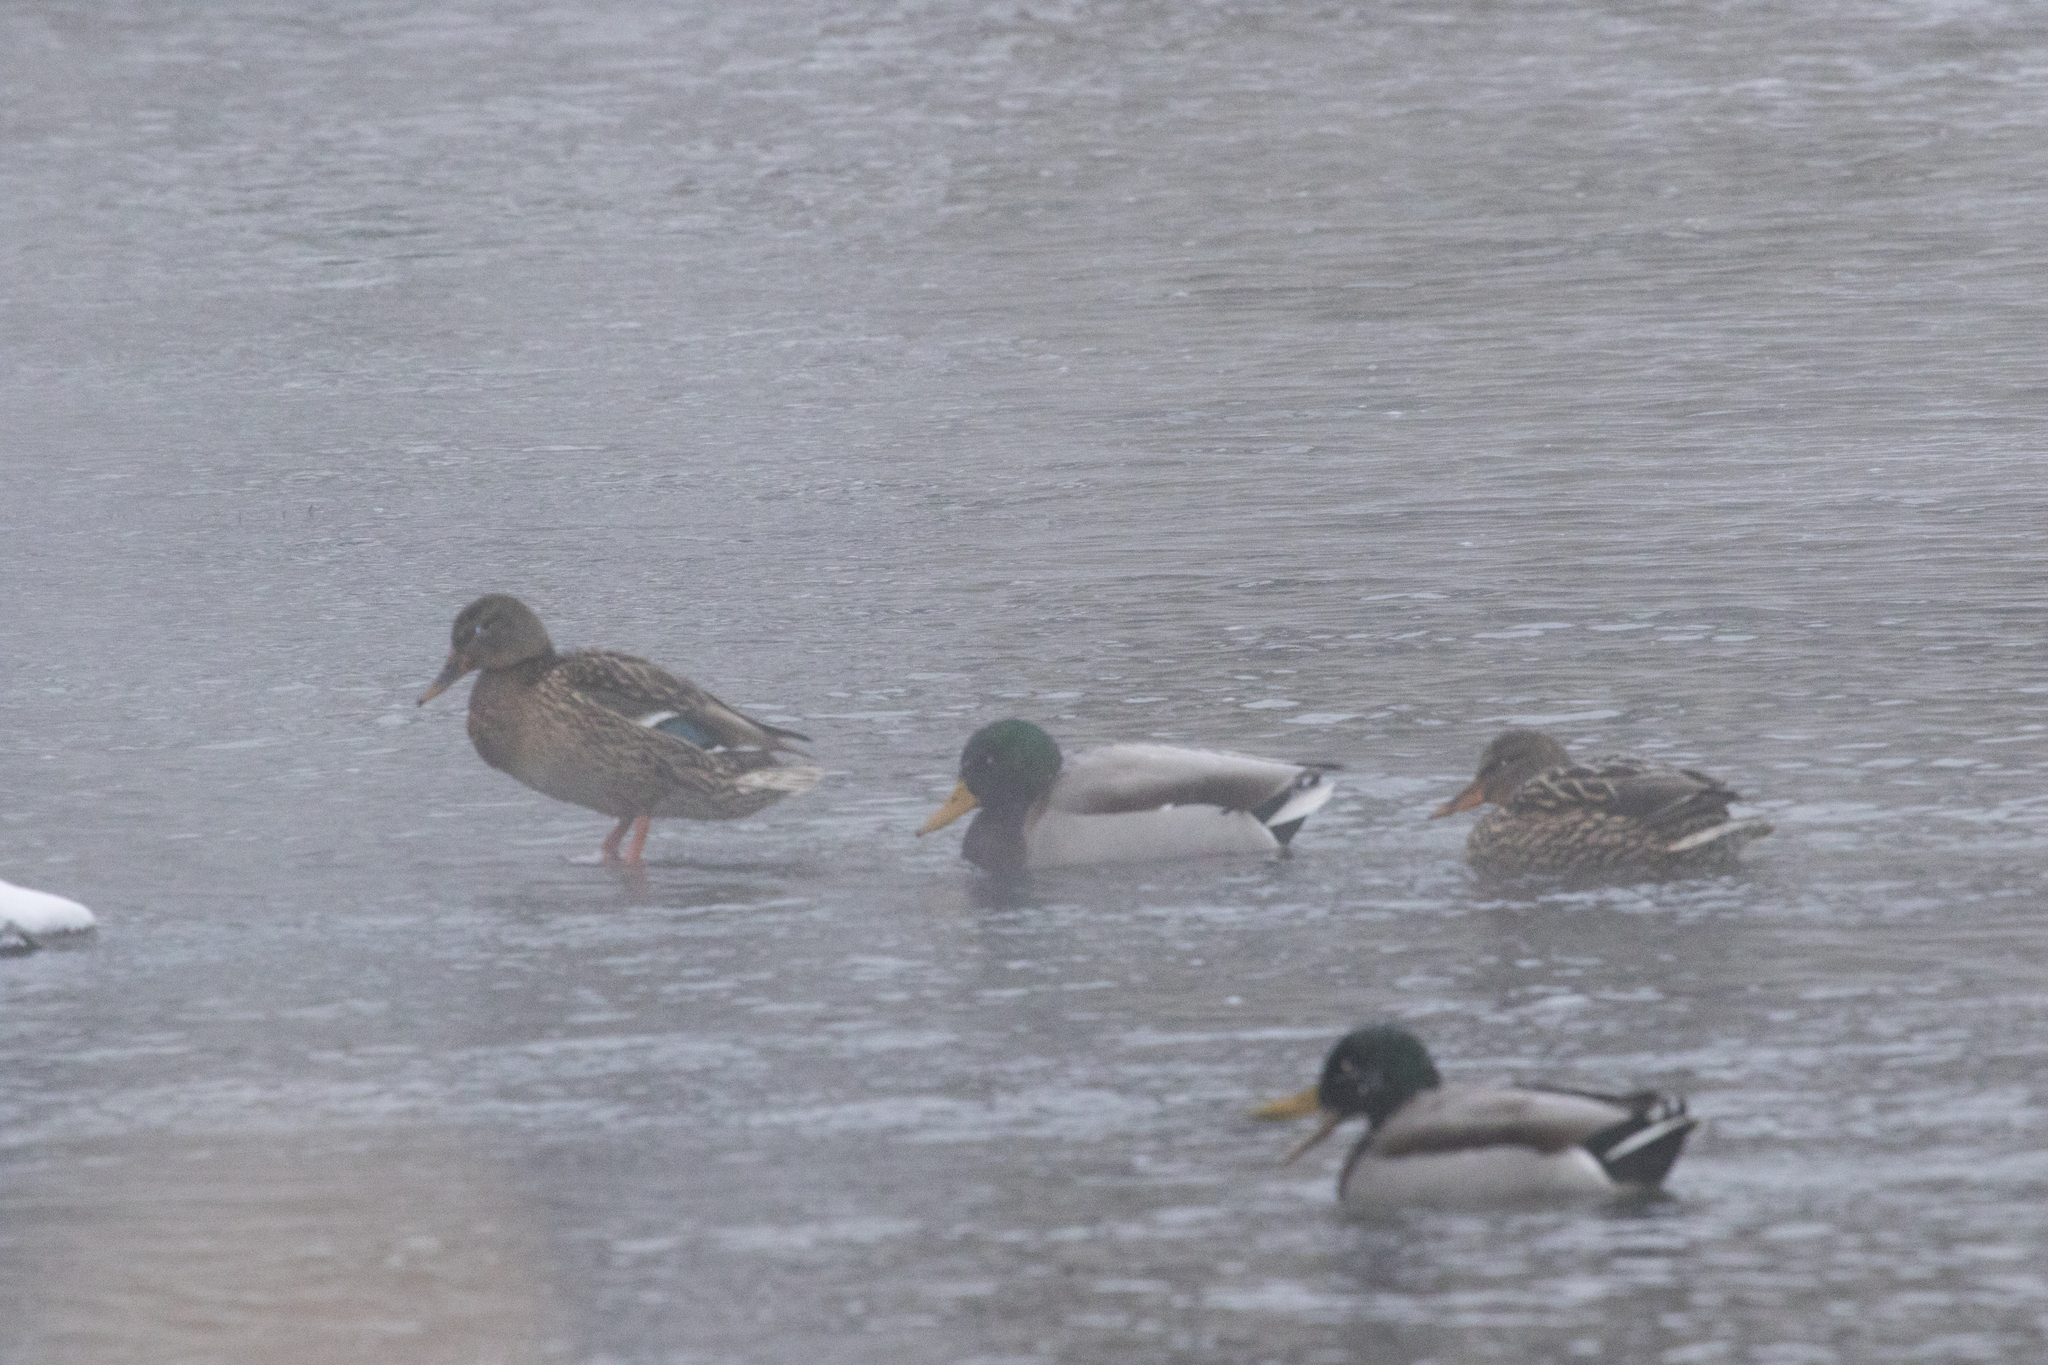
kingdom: Animalia
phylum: Chordata
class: Aves
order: Anseriformes
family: Anatidae
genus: Anas
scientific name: Anas platyrhynchos
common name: Mallard
